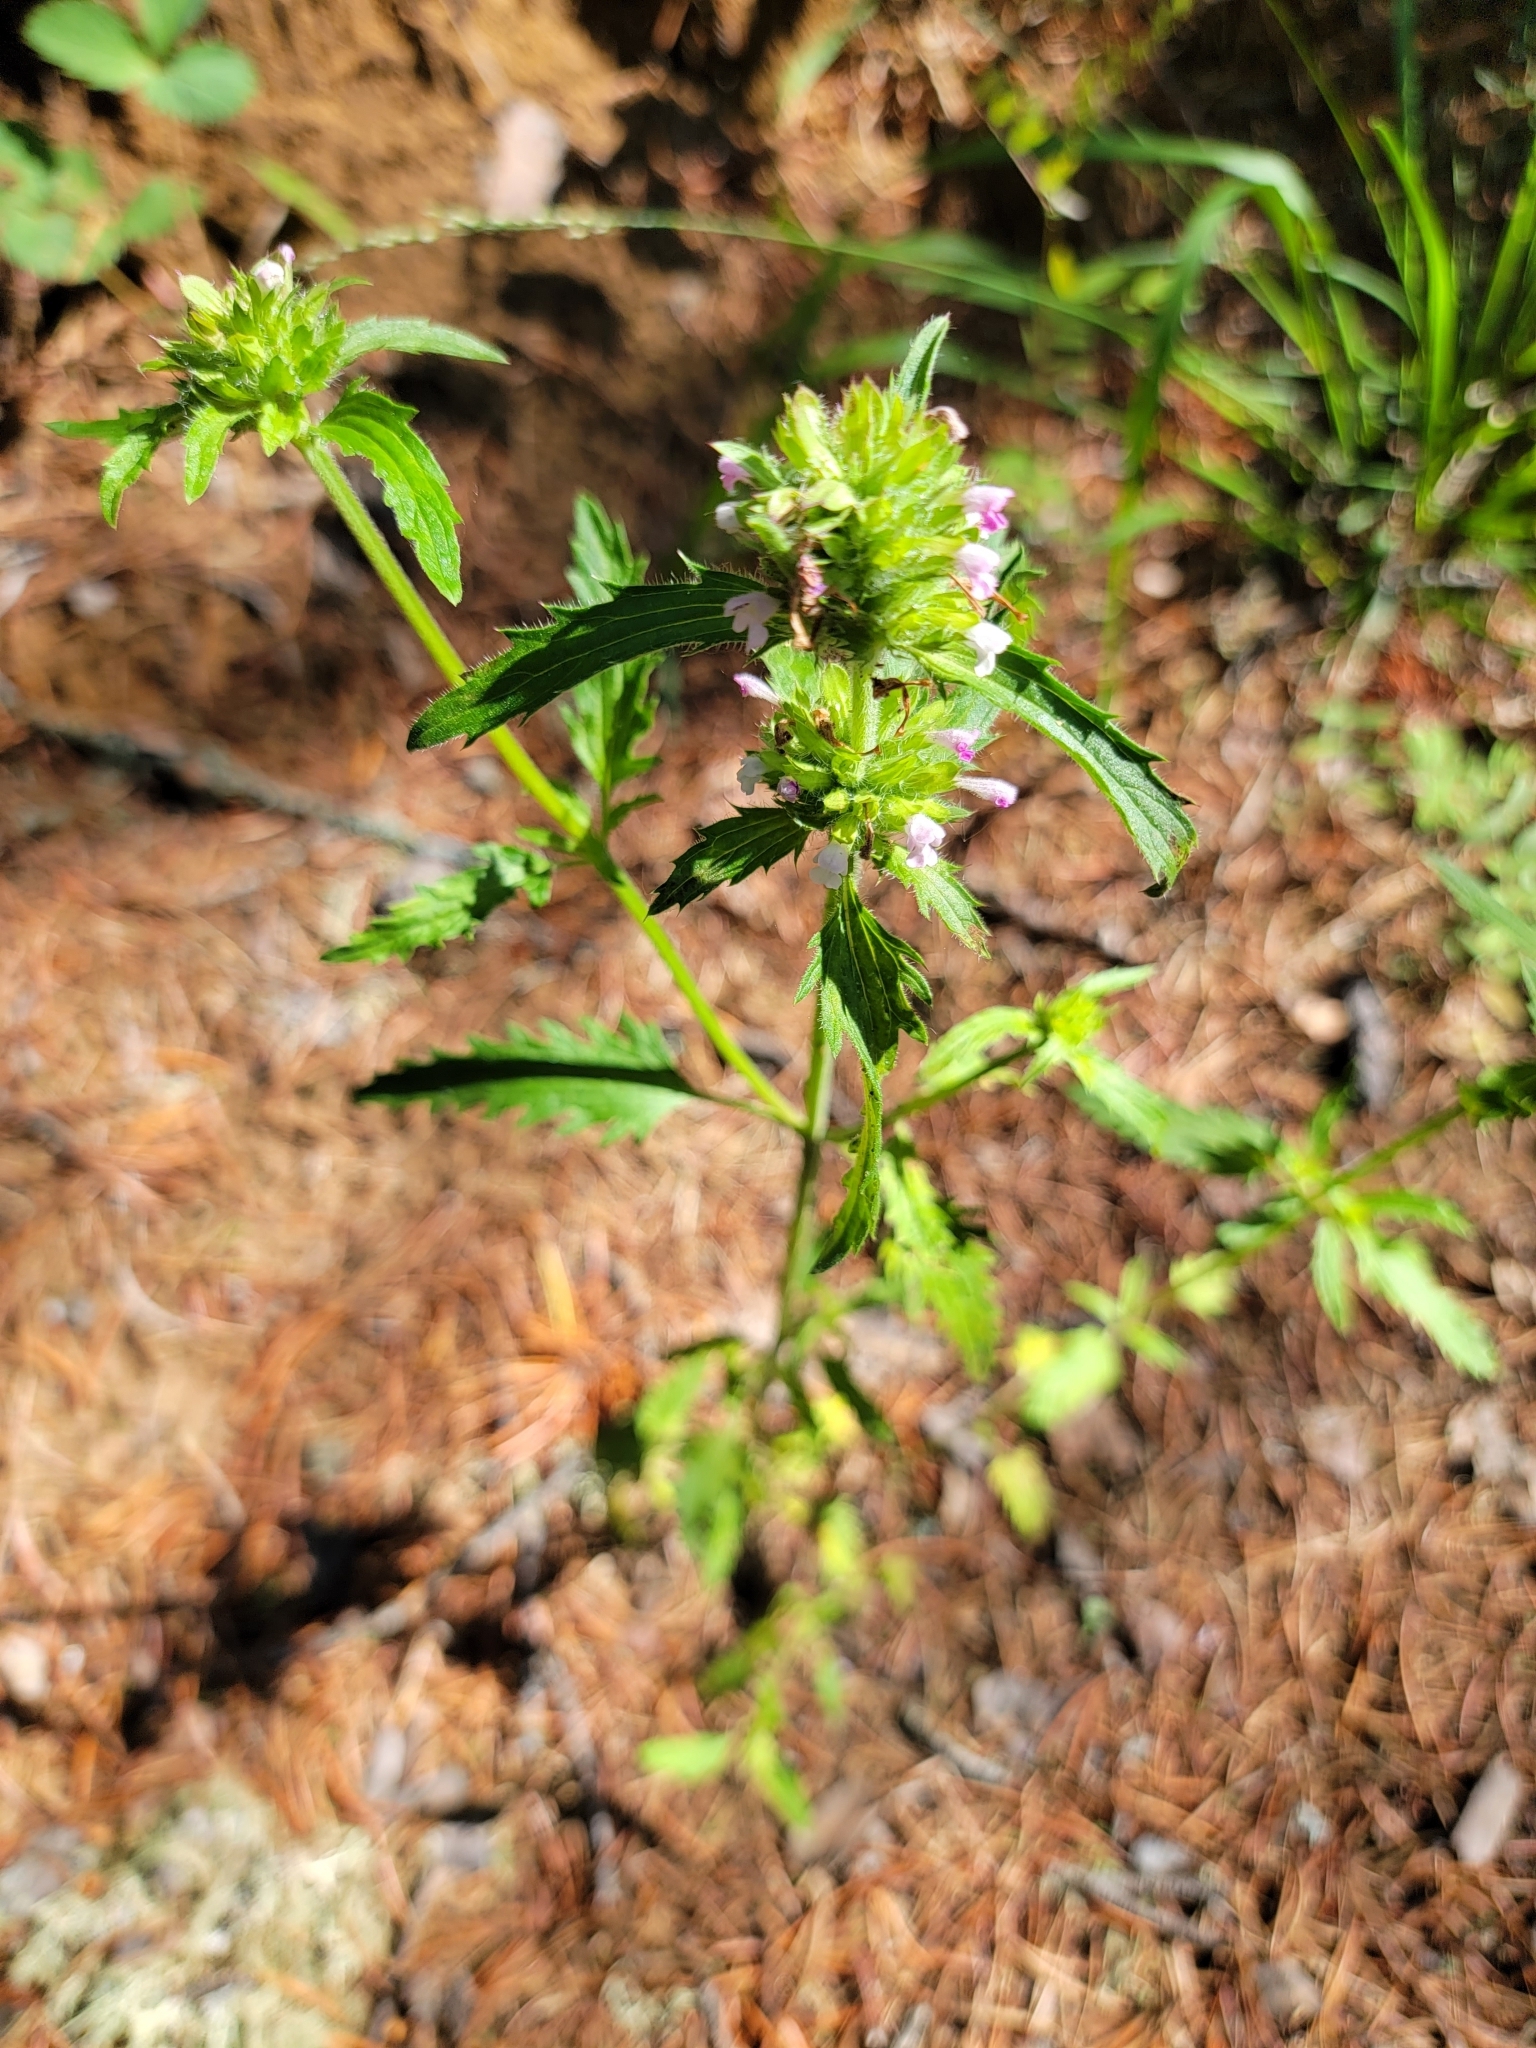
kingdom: Plantae
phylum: Tracheophyta
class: Magnoliopsida
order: Lamiales
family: Lamiaceae
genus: Dracocephalum
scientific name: Dracocephalum parviflorum
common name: American dragonhead
